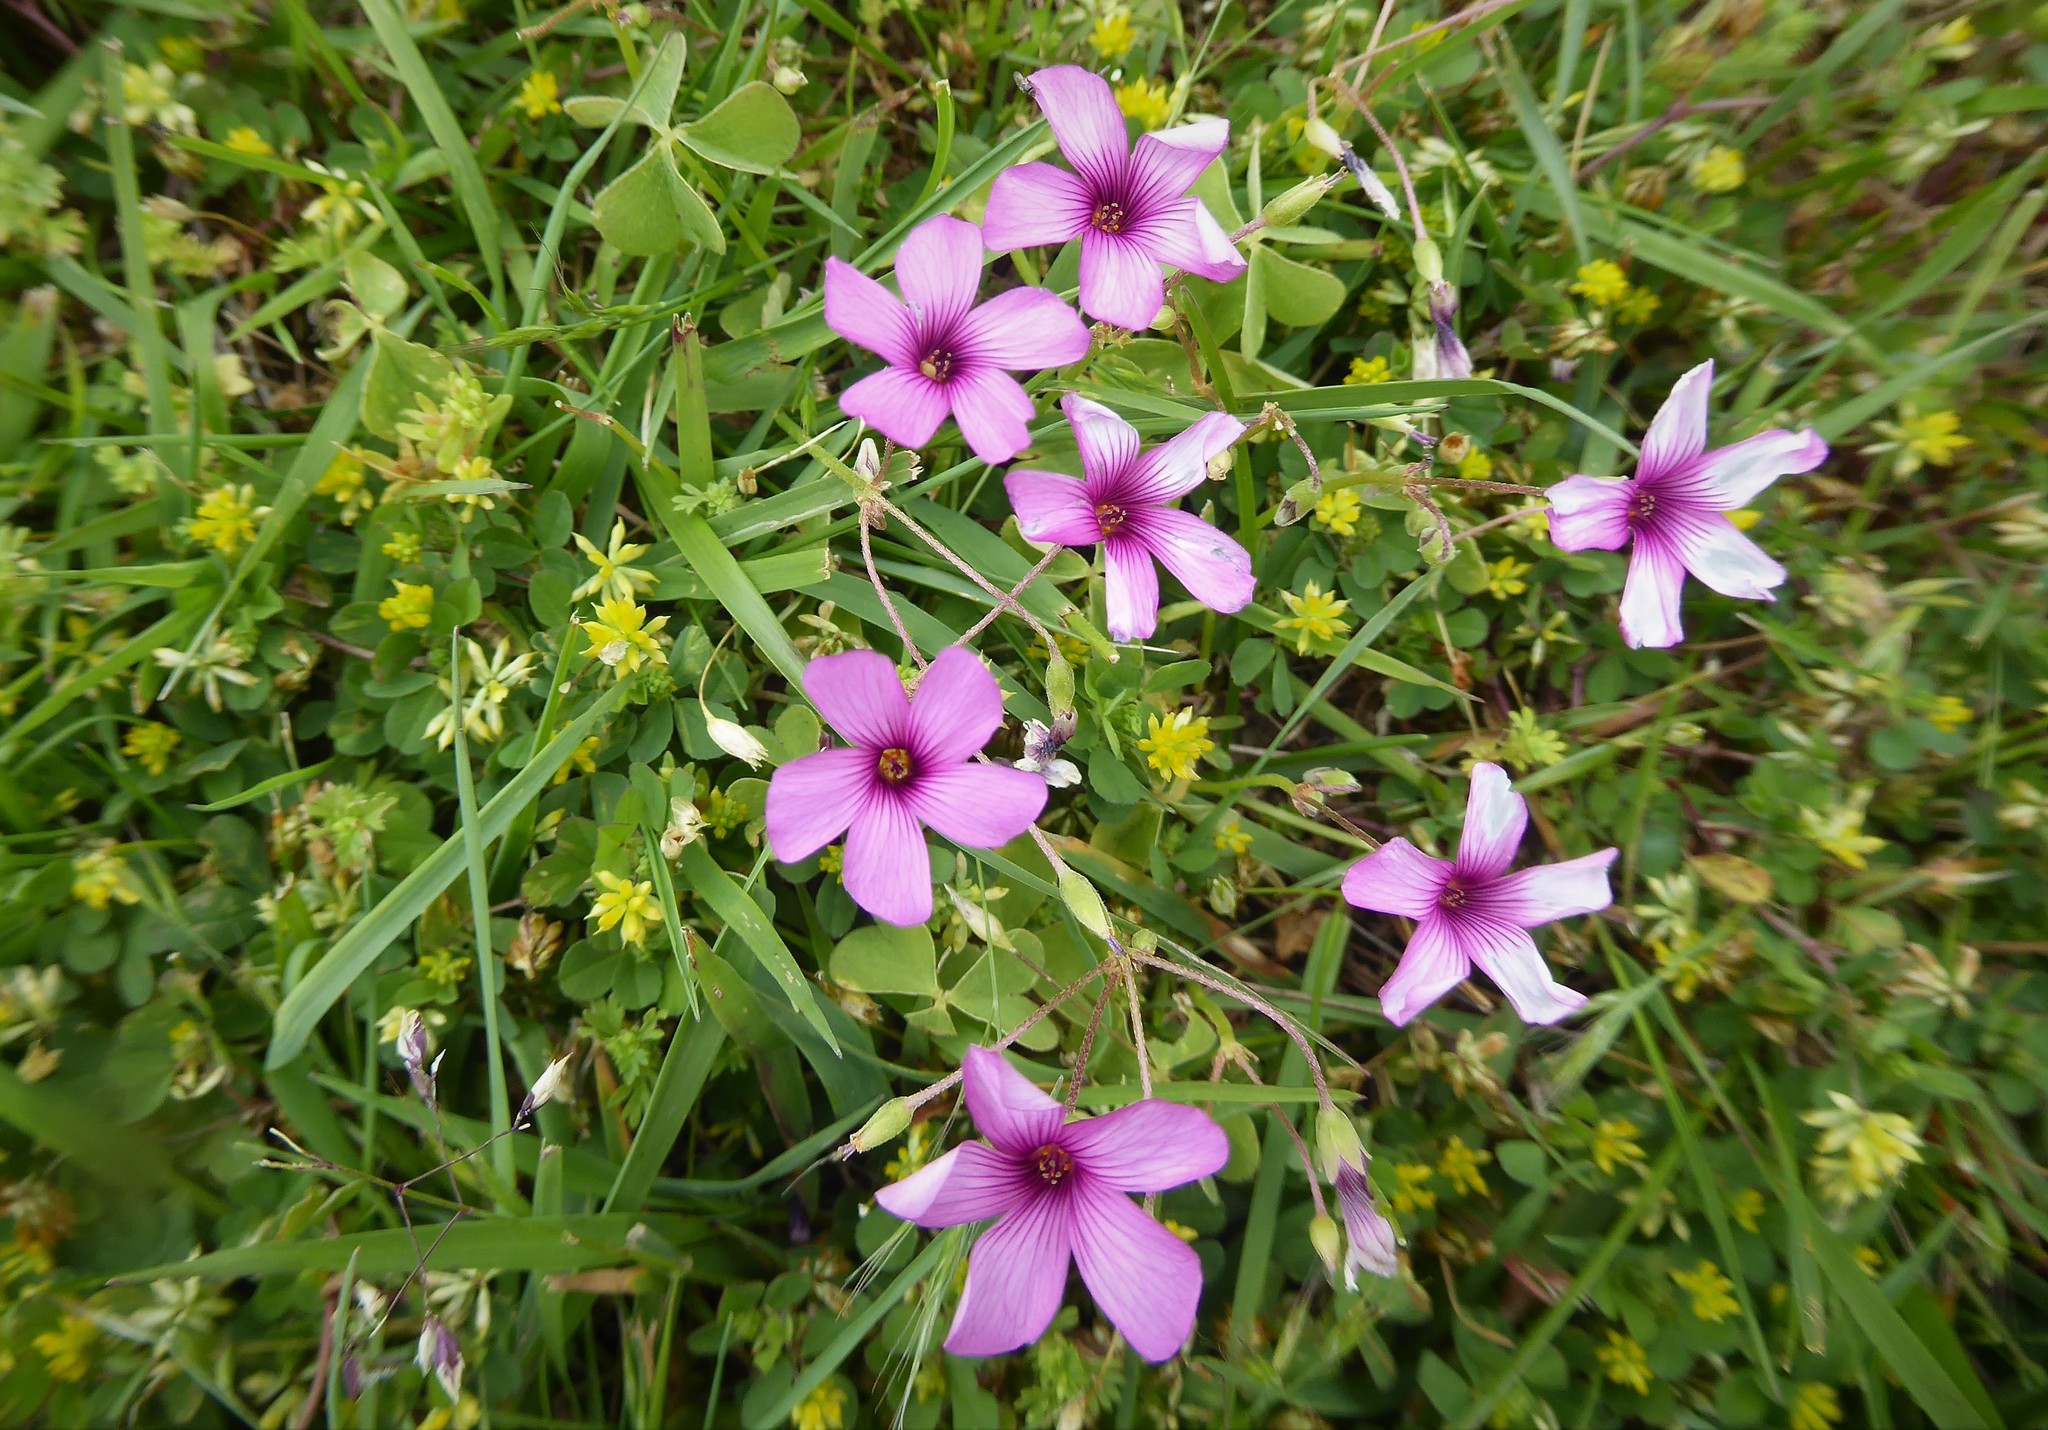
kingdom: Plantae
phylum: Tracheophyta
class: Magnoliopsida
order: Oxalidales
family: Oxalidaceae
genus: Oxalis
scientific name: Oxalis articulata
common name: Pink-sorrel
